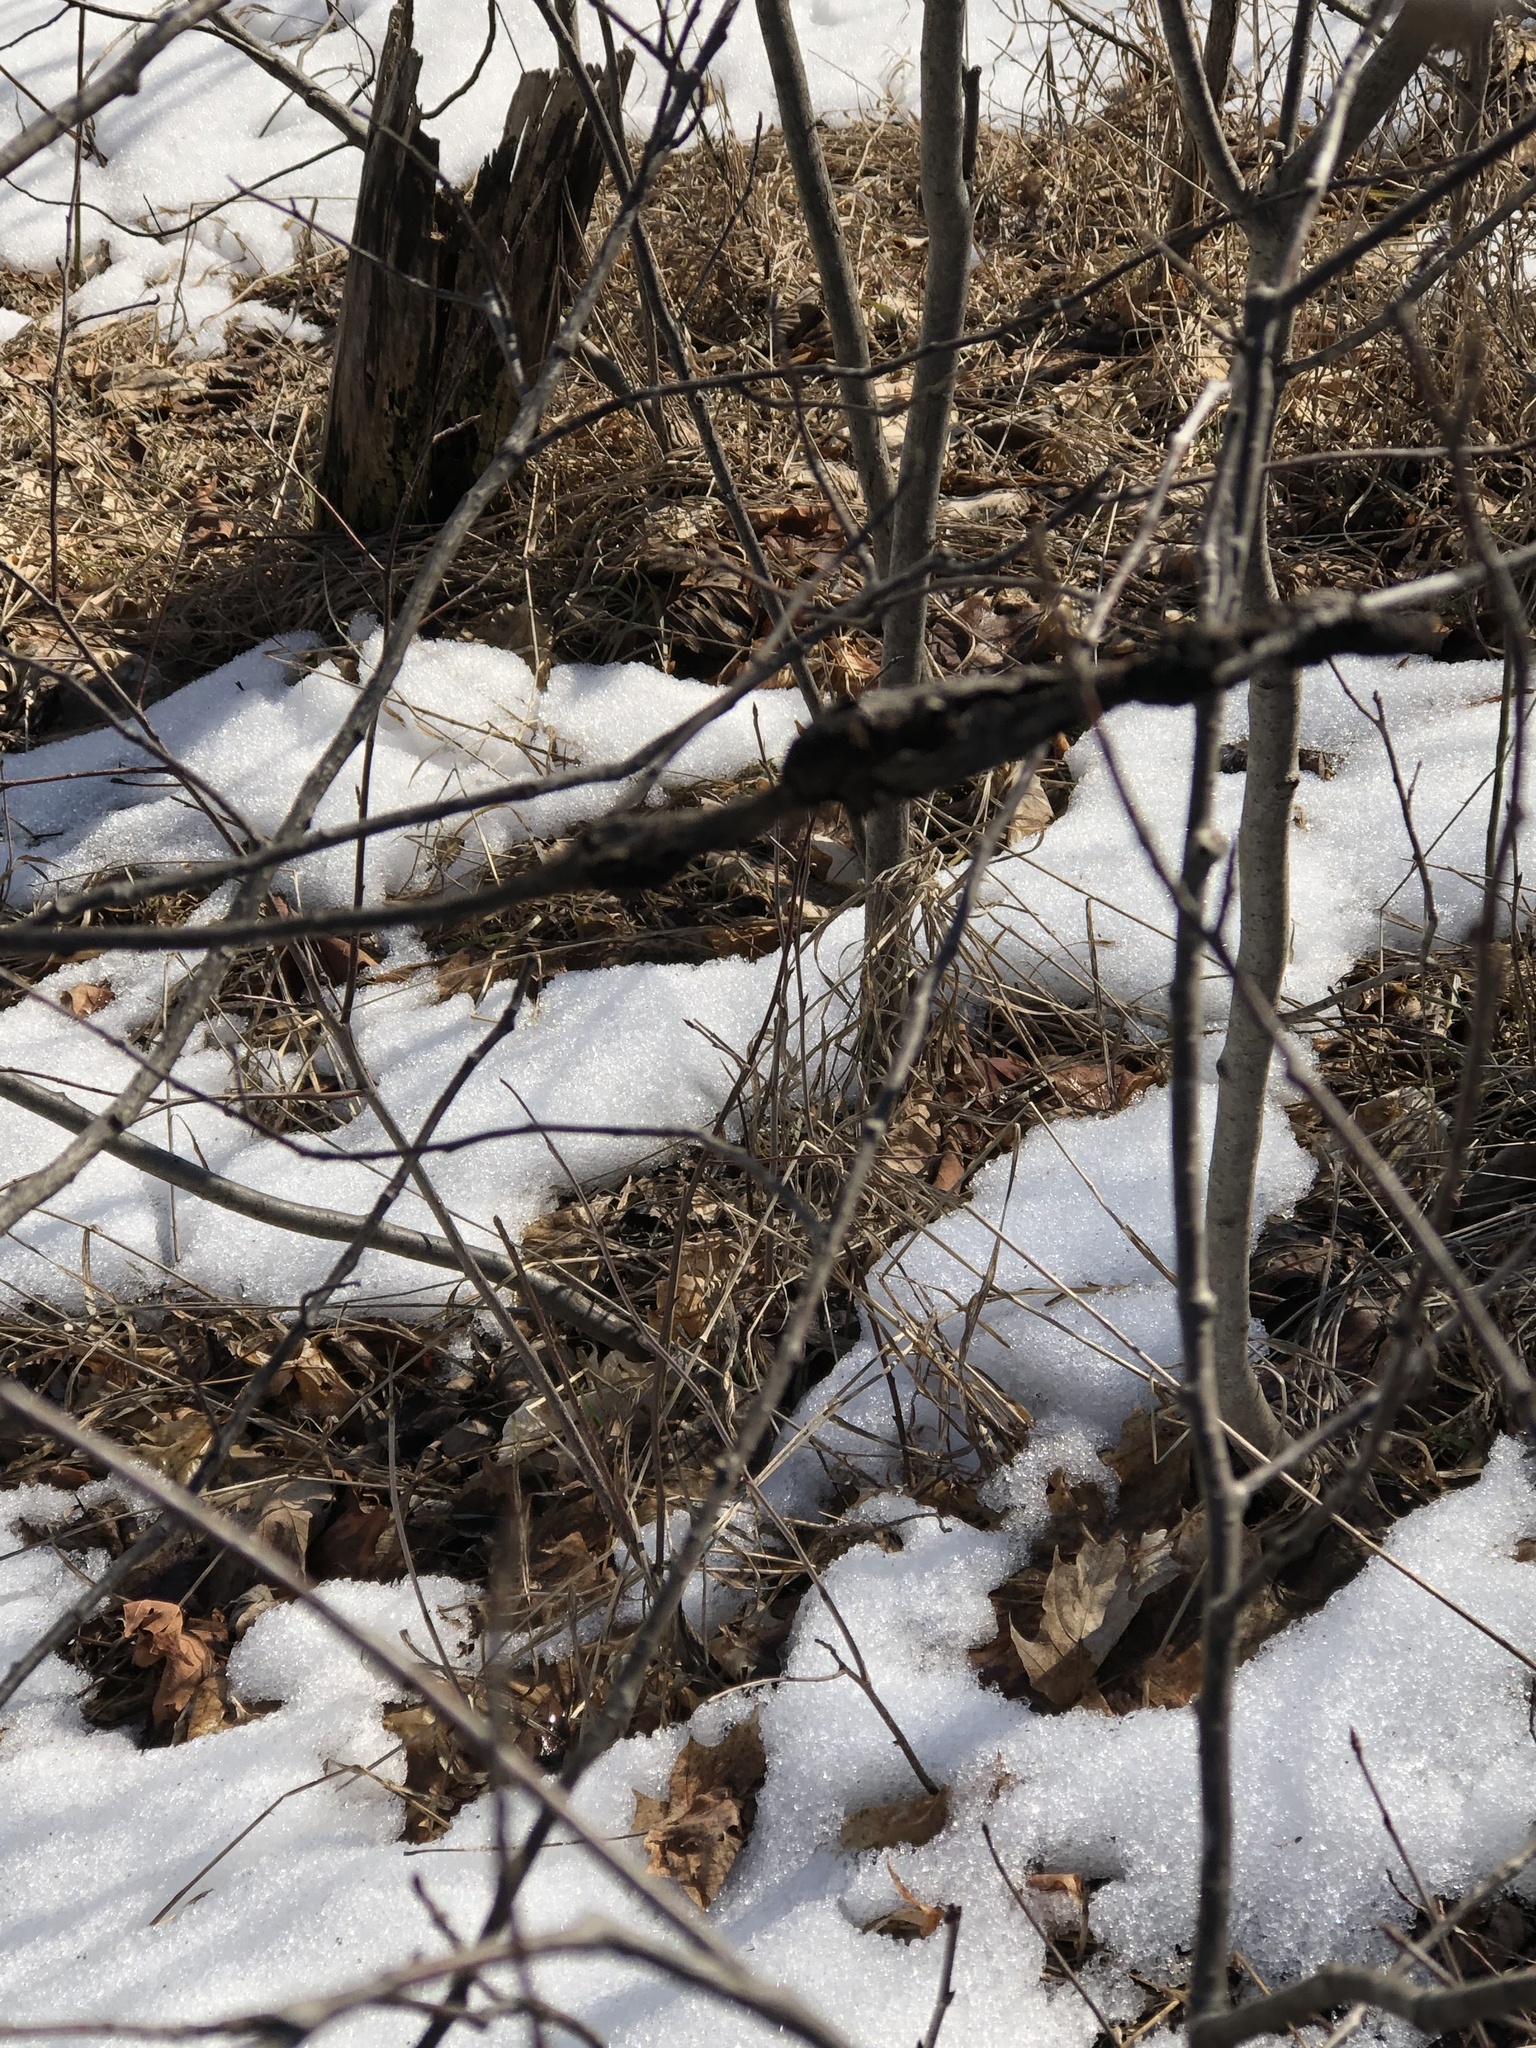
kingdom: Fungi
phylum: Ascomycota
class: Dothideomycetes
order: Venturiales
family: Venturiaceae
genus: Apiosporina
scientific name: Apiosporina morbosa
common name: Black knot
